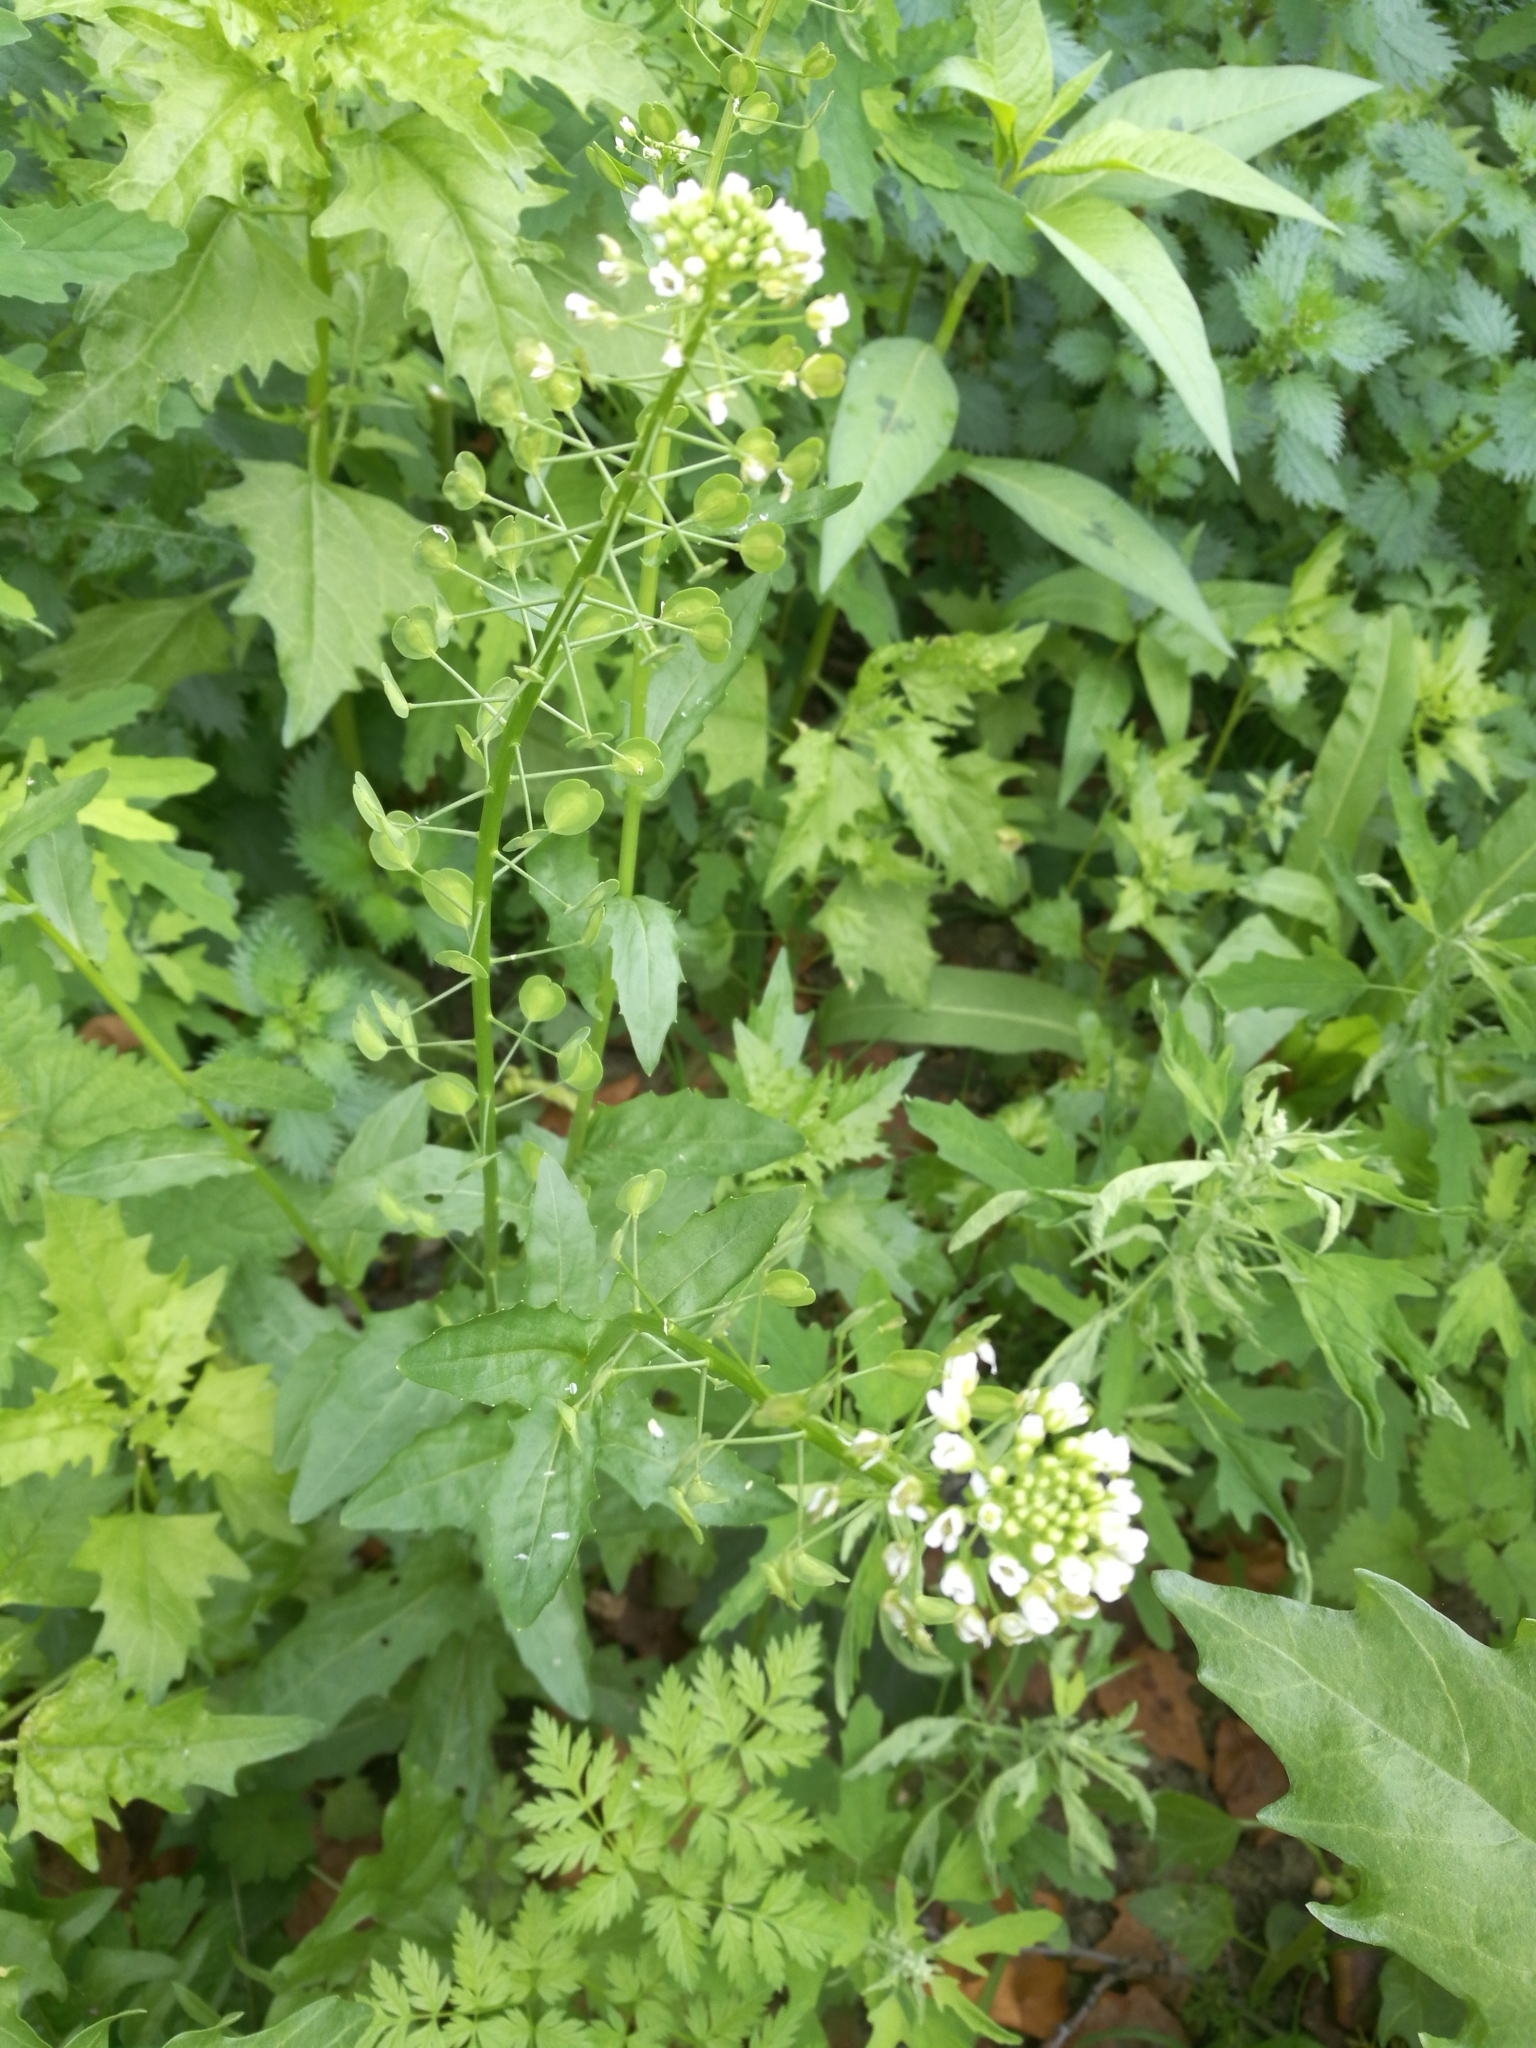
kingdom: Plantae
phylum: Tracheophyta
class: Magnoliopsida
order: Brassicales
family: Brassicaceae
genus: Thlaspi
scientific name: Thlaspi arvense
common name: Field pennycress
